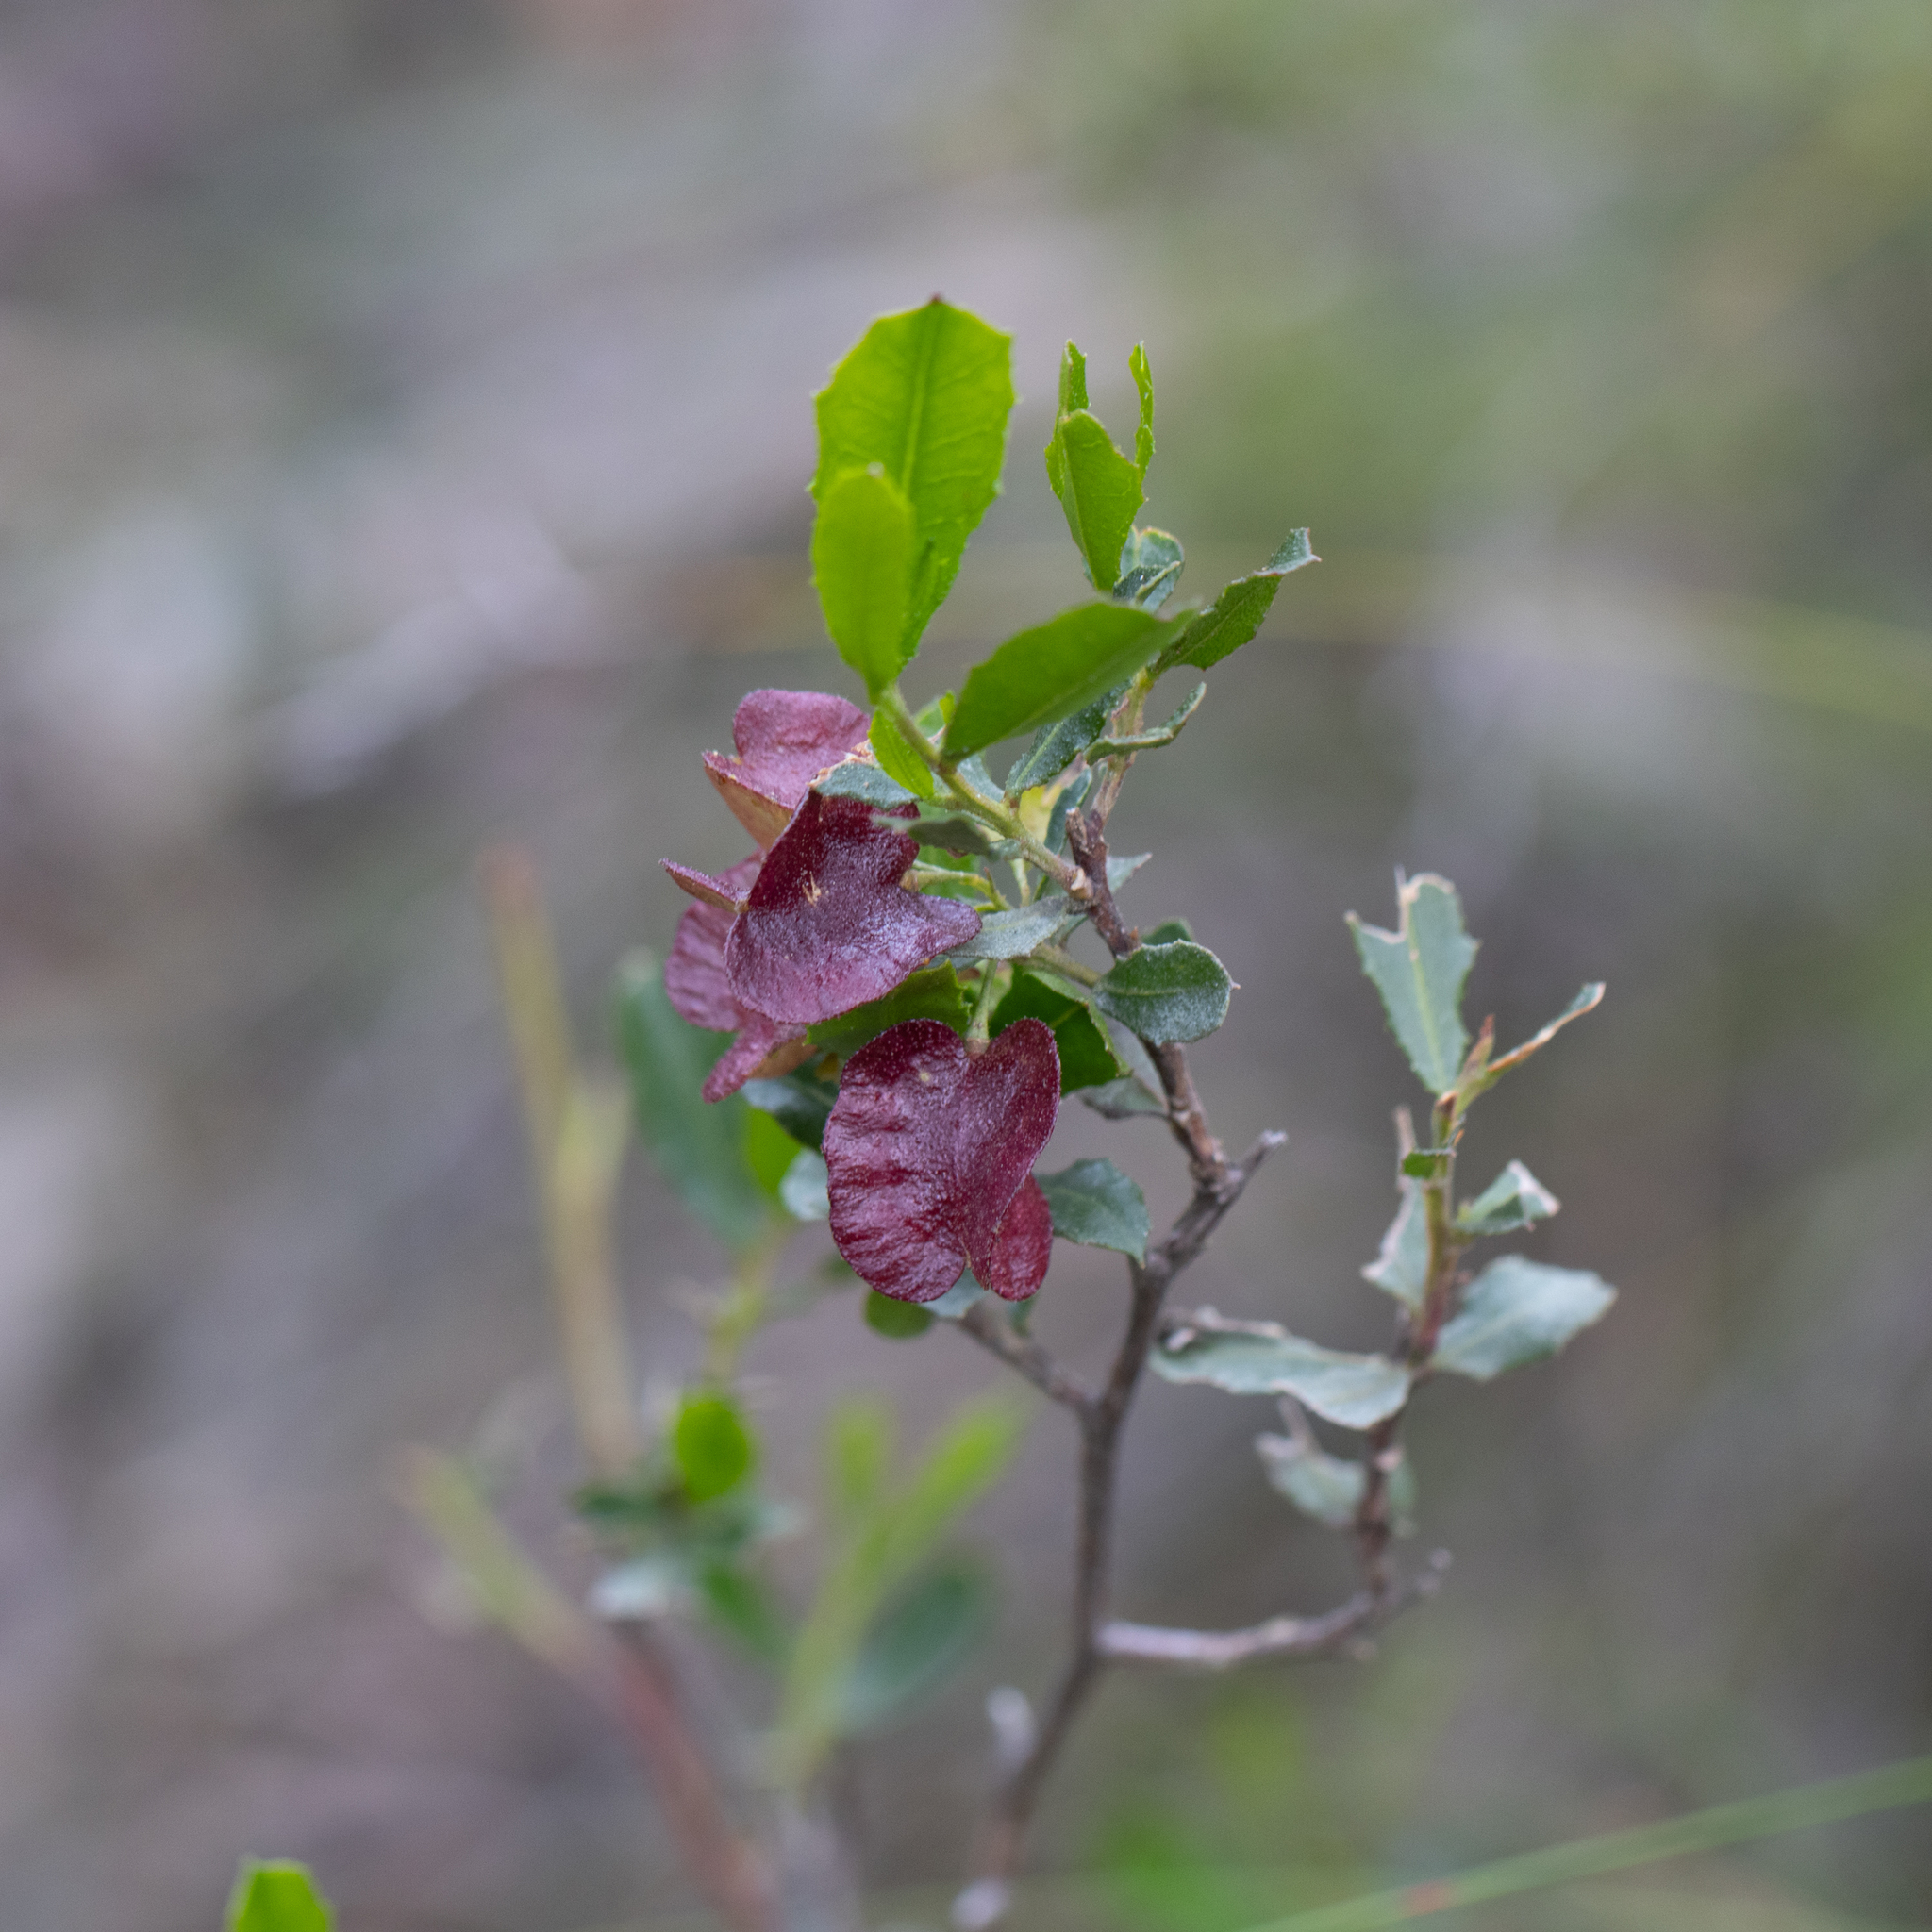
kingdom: Plantae
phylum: Tracheophyta
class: Magnoliopsida
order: Sapindales
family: Sapindaceae
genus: Dodonaea
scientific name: Dodonaea viscosa
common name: Hopbush
